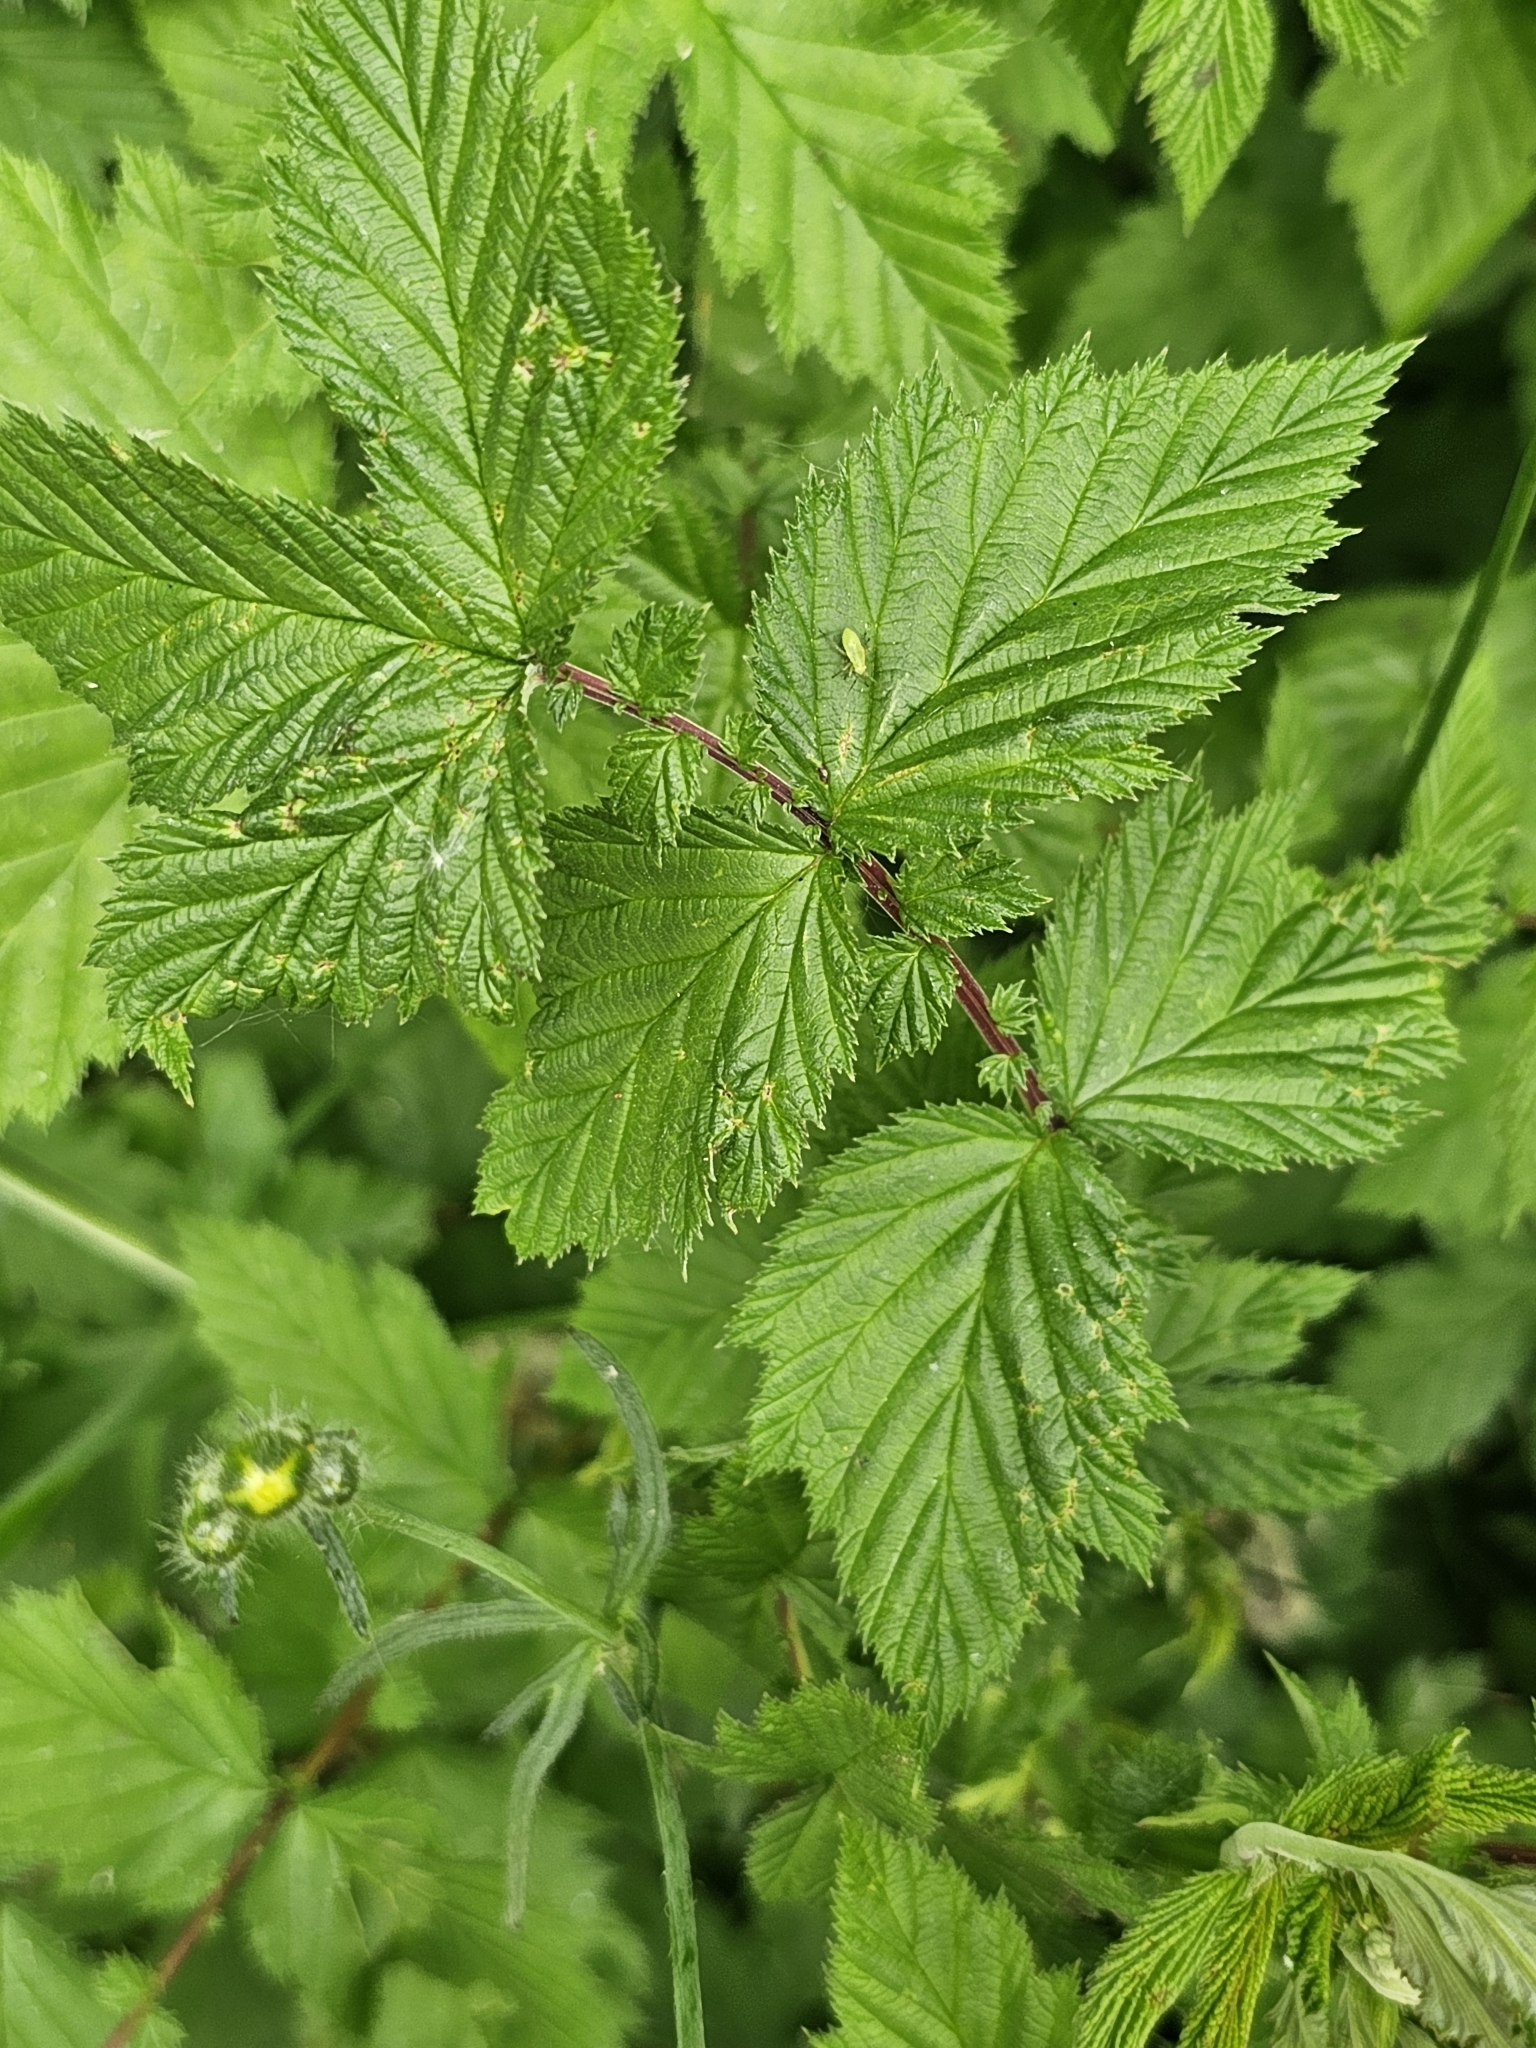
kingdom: Plantae
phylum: Tracheophyta
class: Magnoliopsida
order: Rosales
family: Rosaceae
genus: Filipendula
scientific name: Filipendula ulmaria
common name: Meadowsweet
